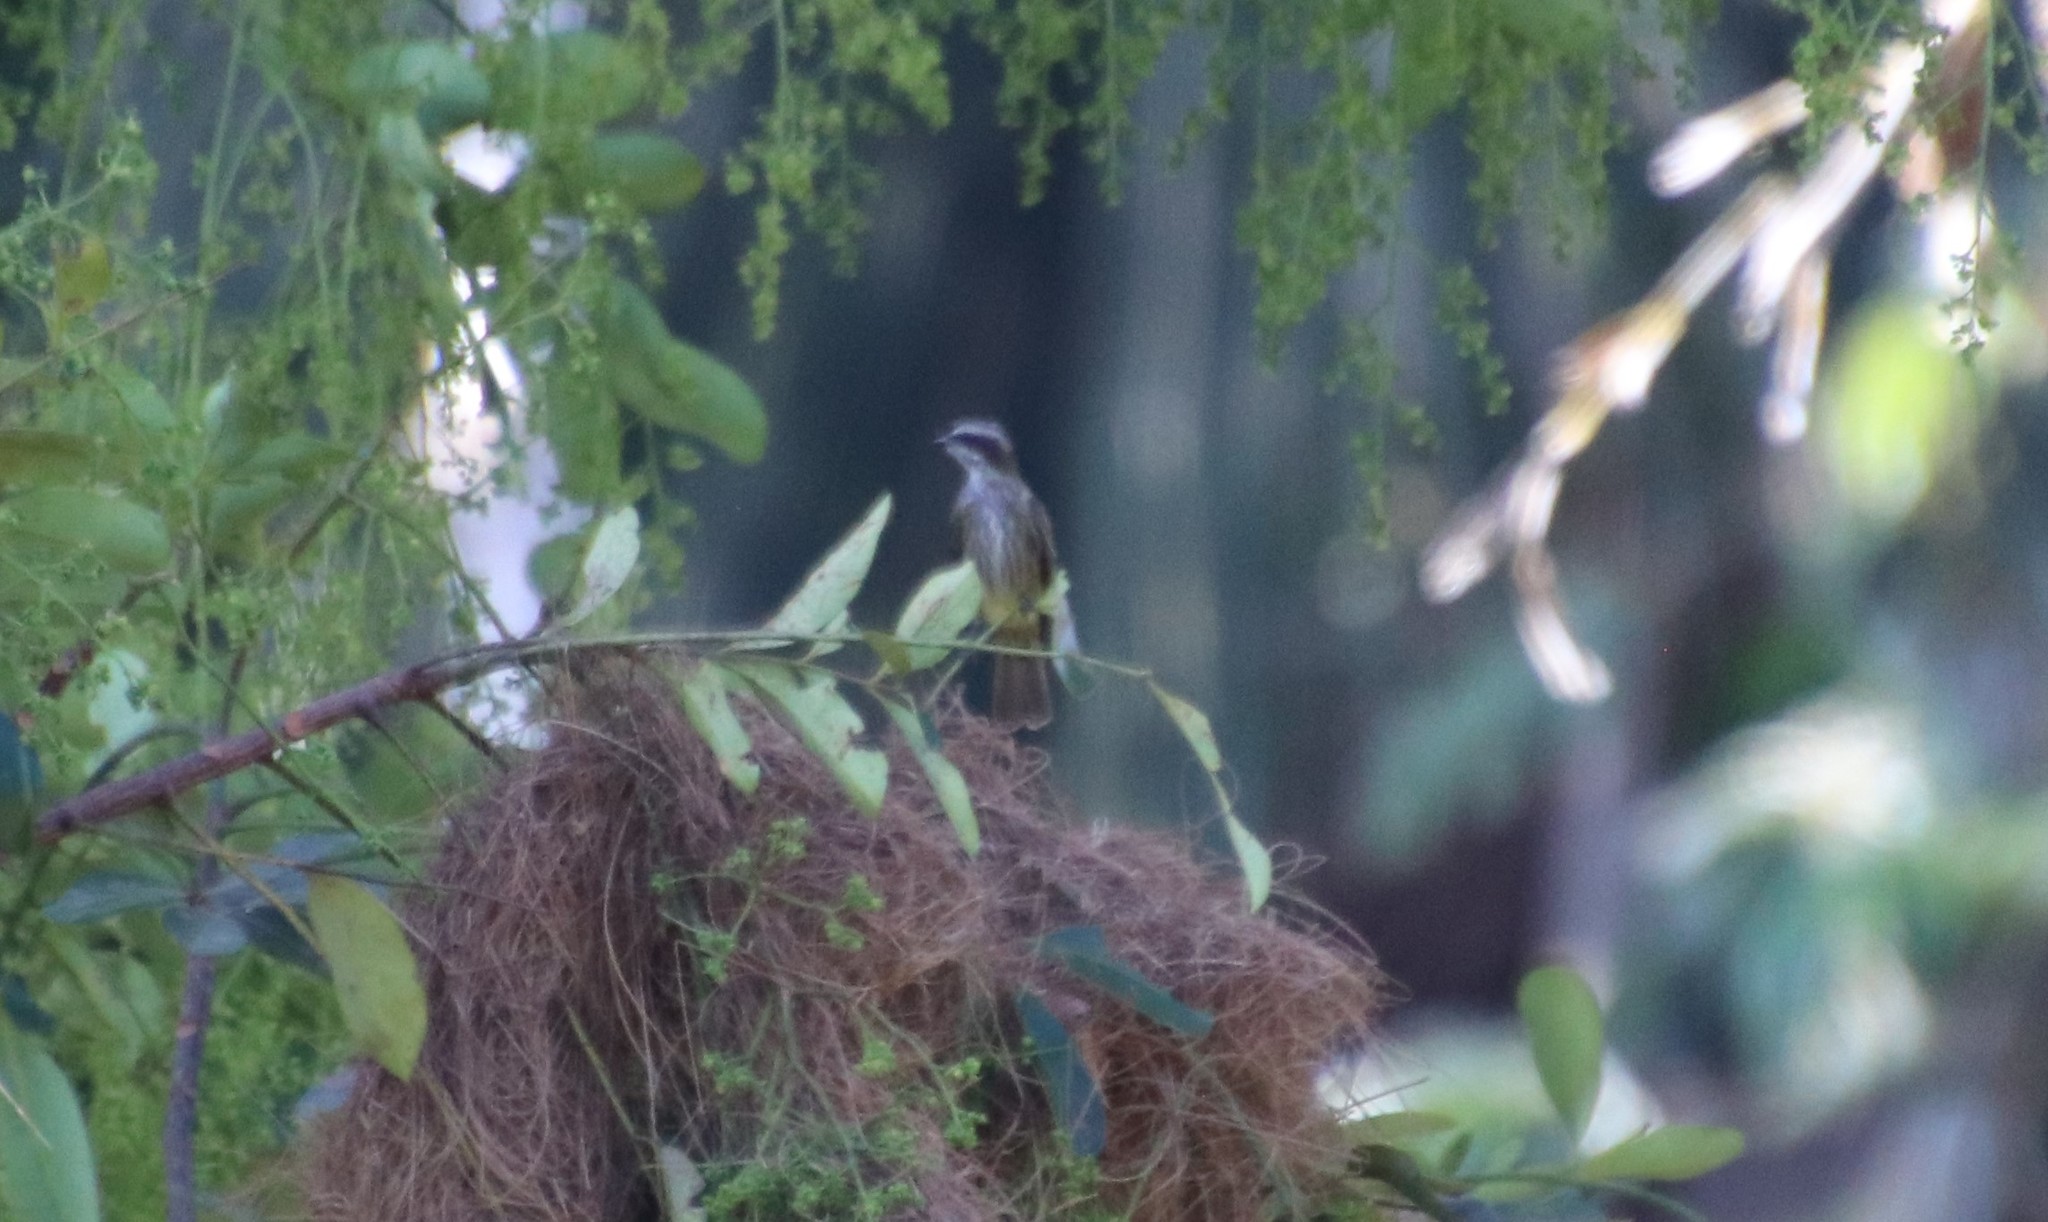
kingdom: Animalia
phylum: Chordata
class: Aves
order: Passeriformes
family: Tyrannidae
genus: Legatus
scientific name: Legatus leucophaius
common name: Piratic flycatcher
